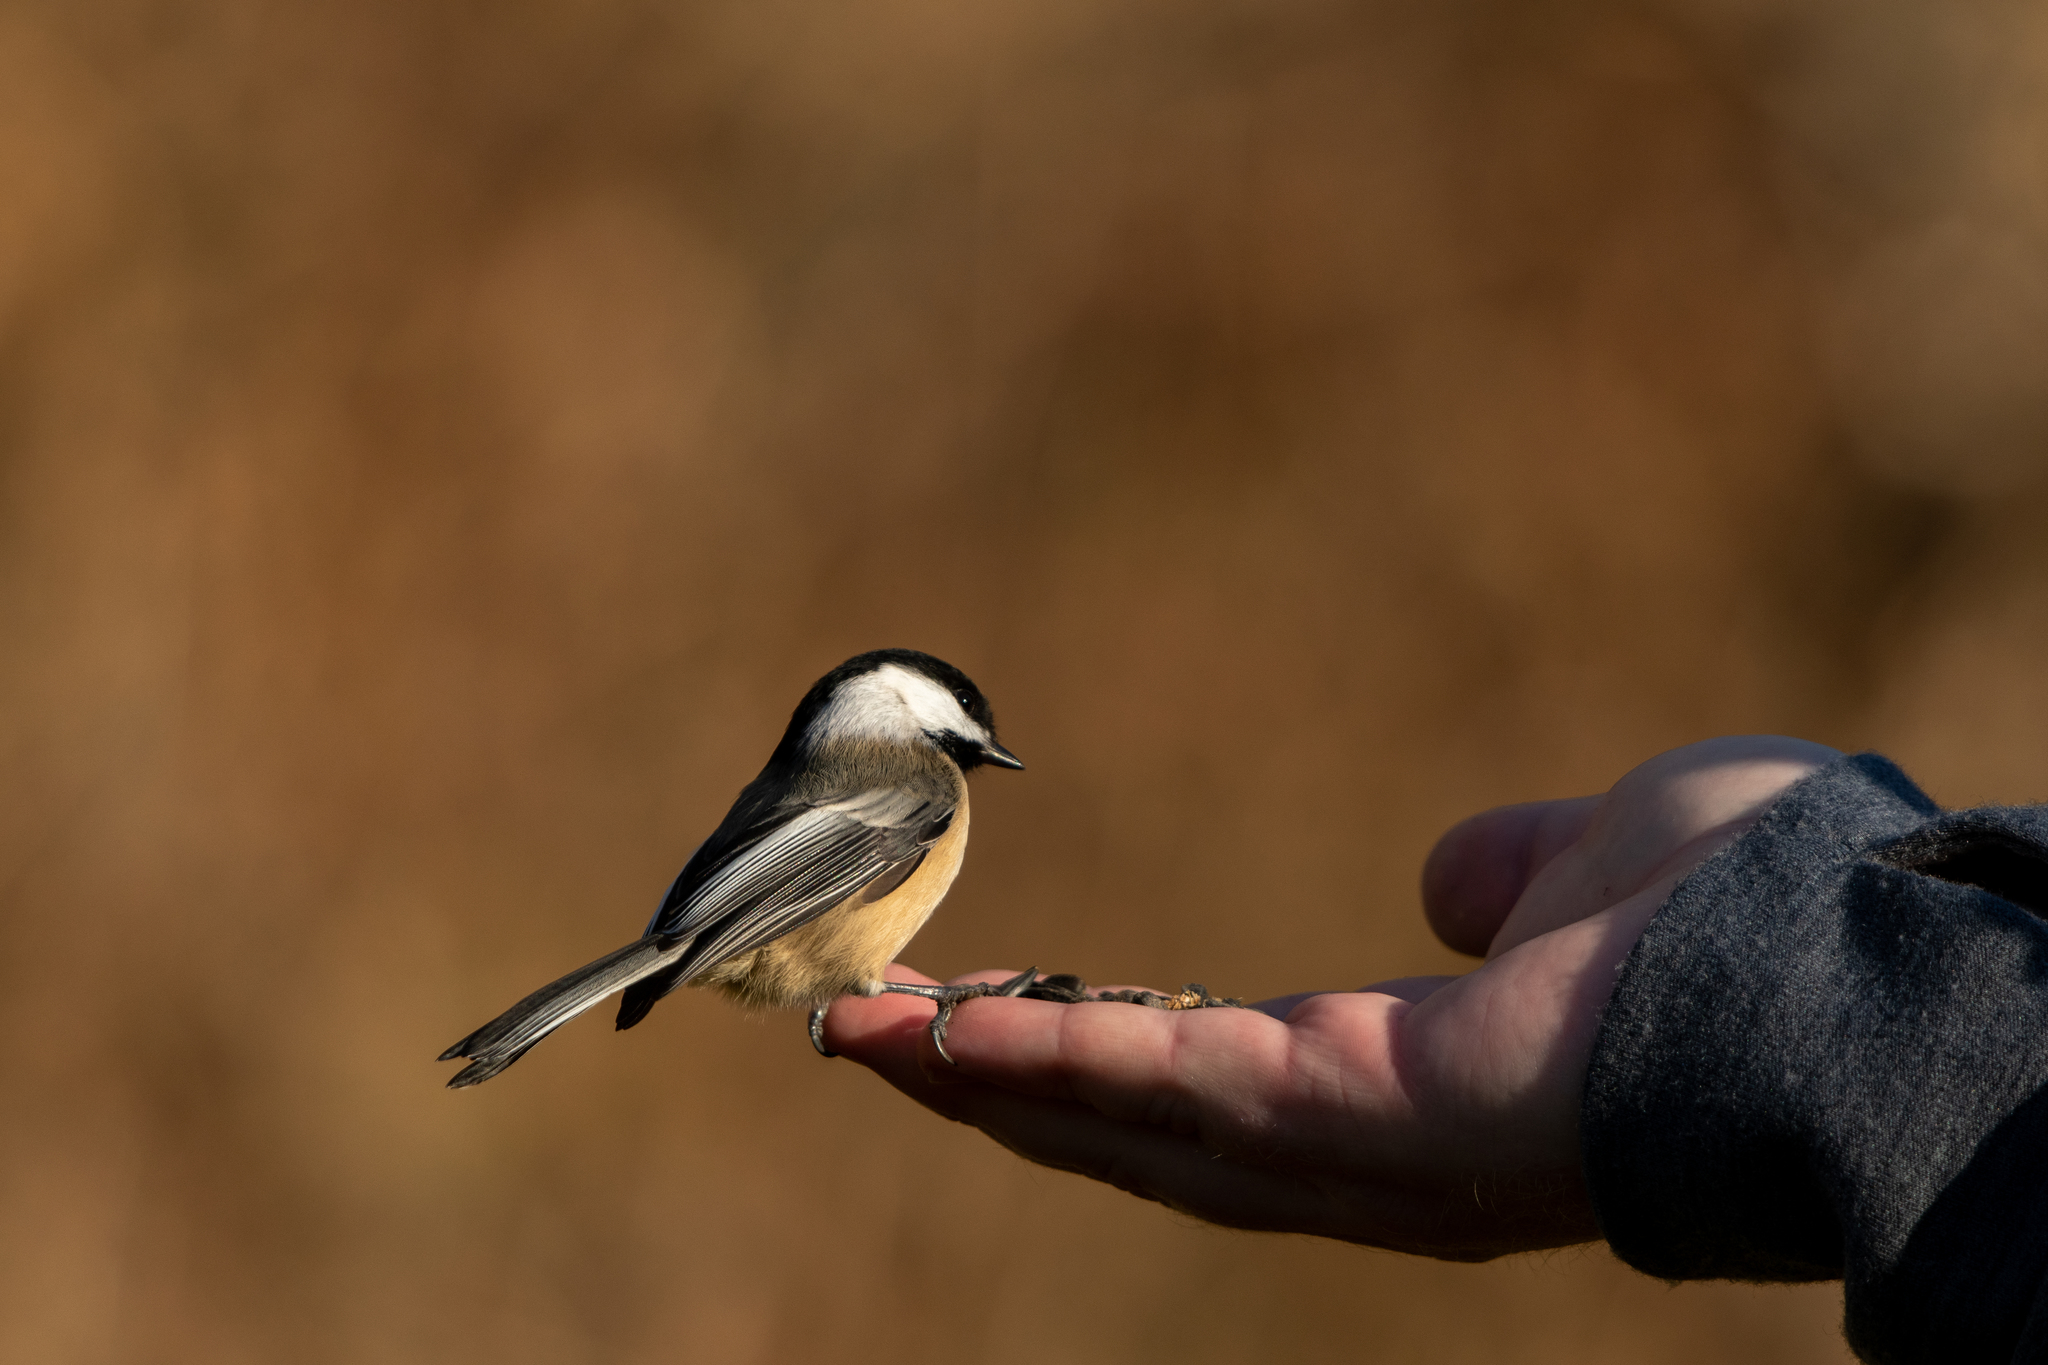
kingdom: Animalia
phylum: Chordata
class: Aves
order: Passeriformes
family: Paridae
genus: Poecile
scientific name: Poecile atricapillus
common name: Black-capped chickadee
